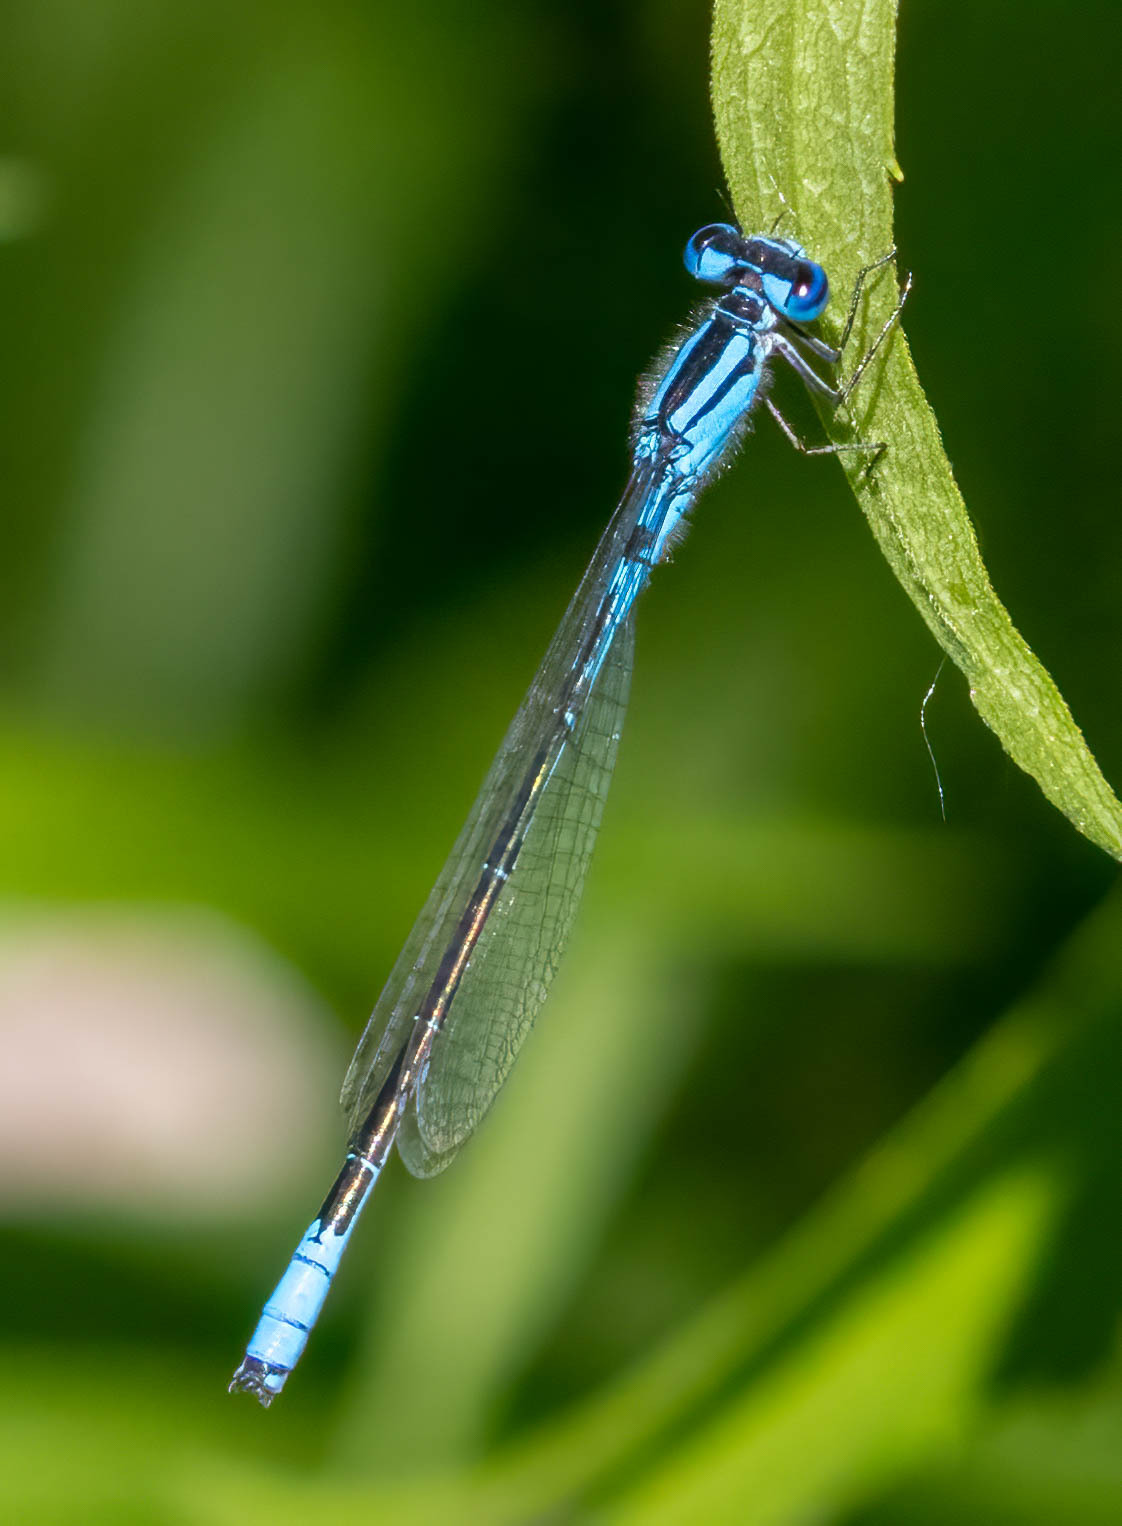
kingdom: Animalia
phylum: Arthropoda
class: Insecta
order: Odonata
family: Coenagrionidae
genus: Enallagma
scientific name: Enallagma aspersum
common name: Azure bluet
